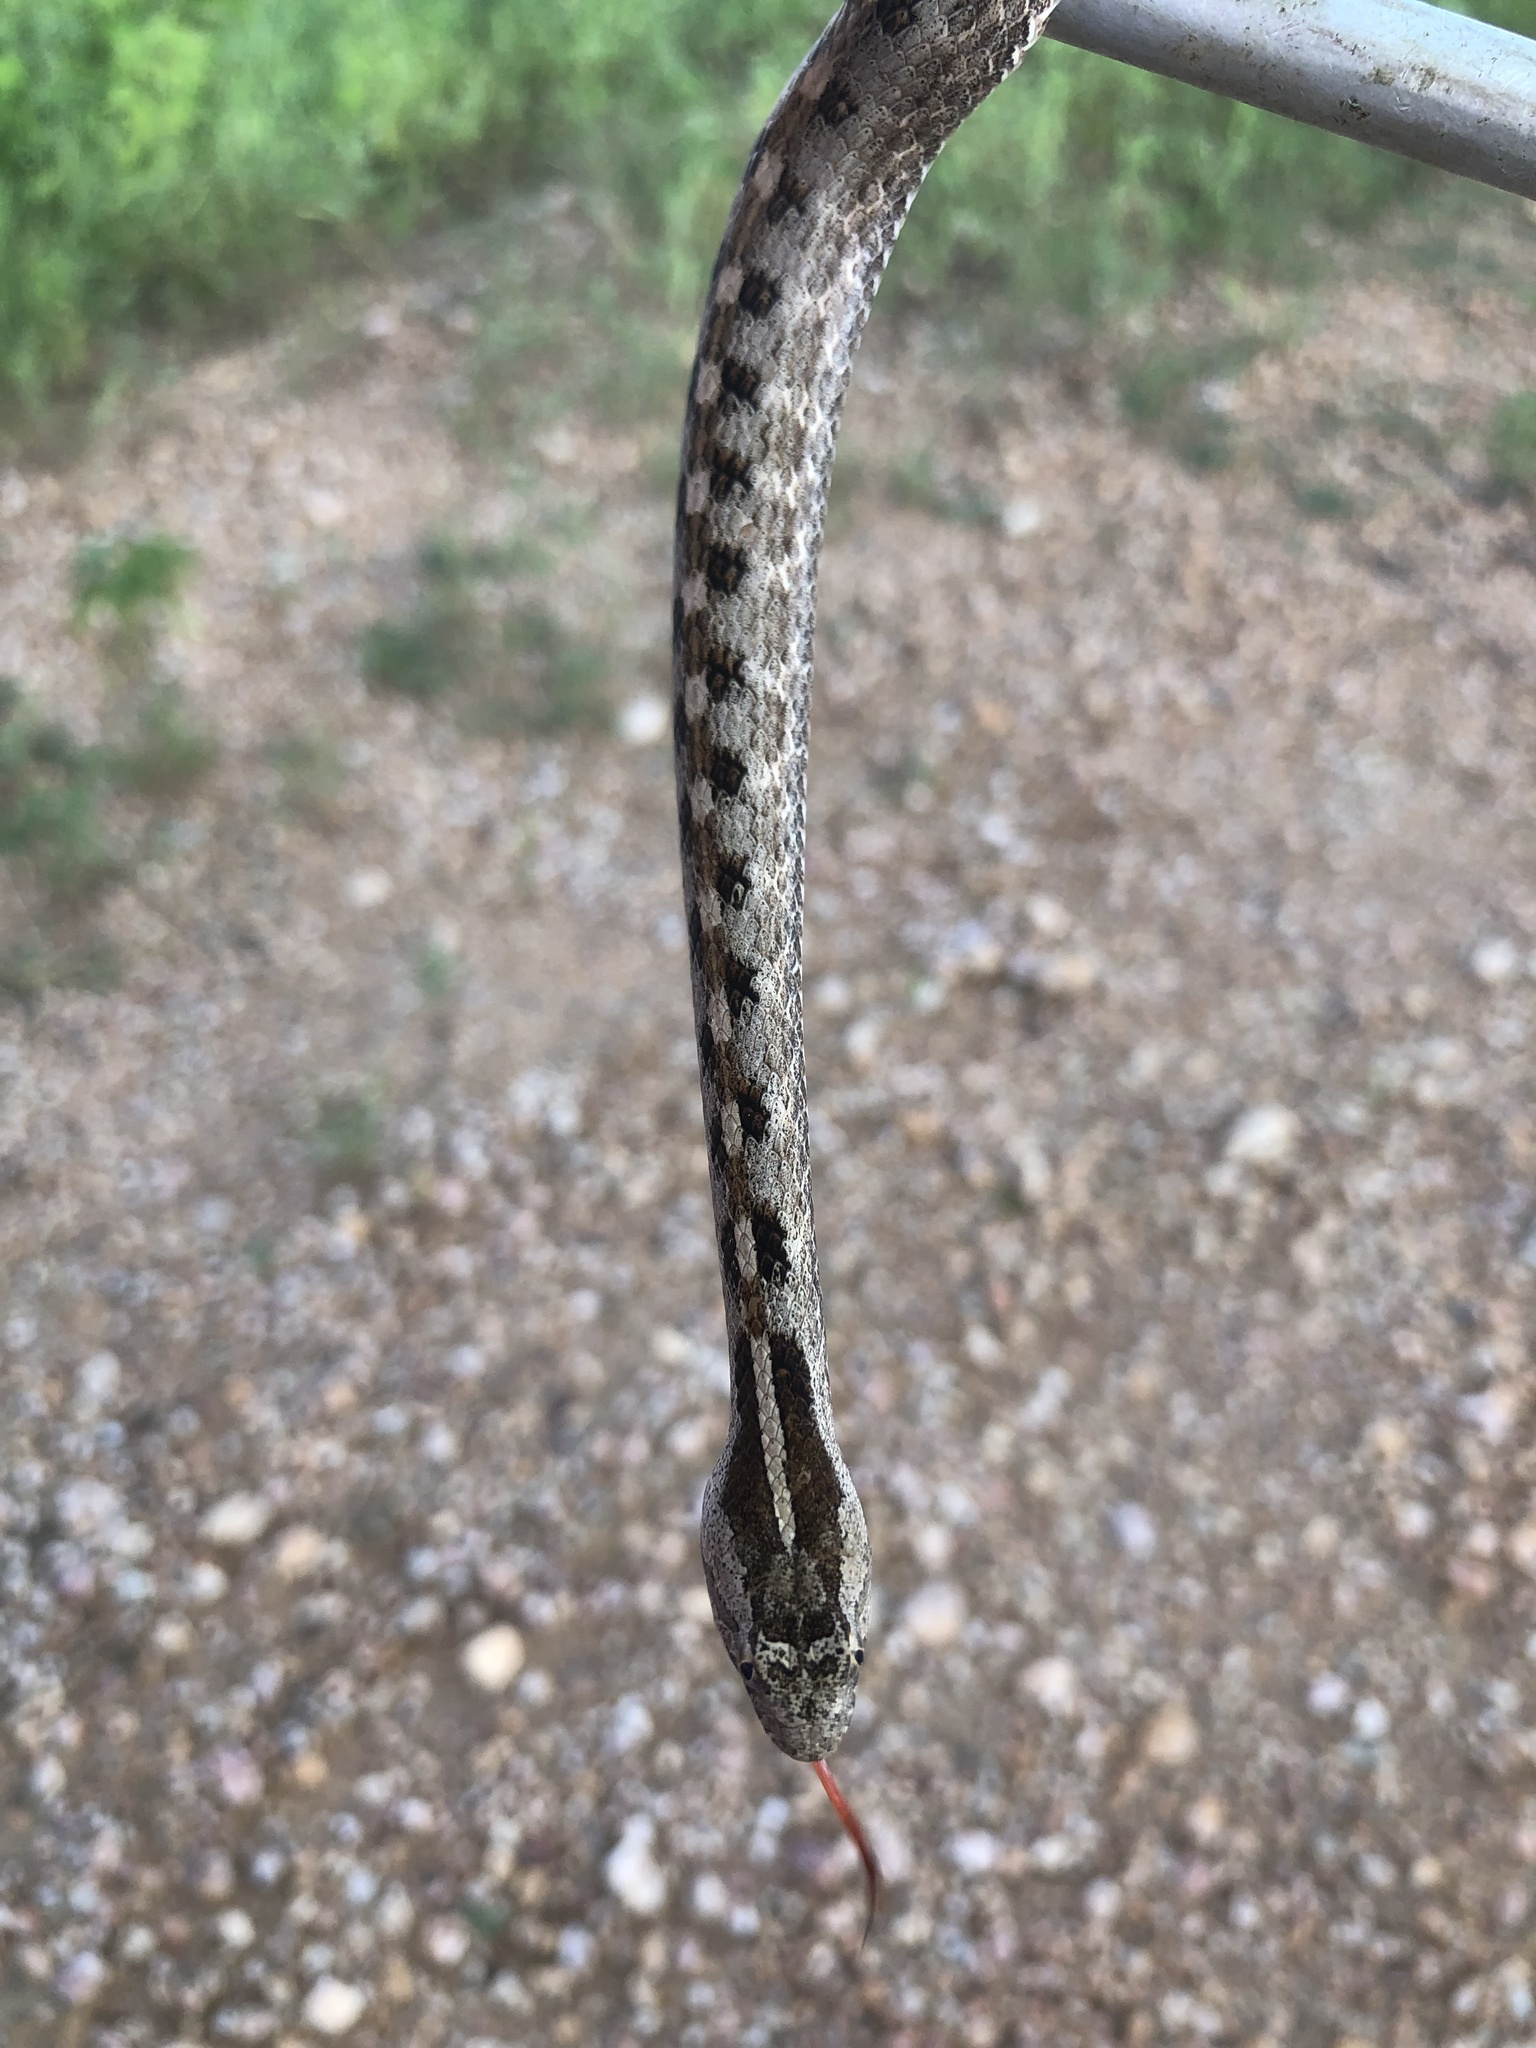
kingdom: Animalia
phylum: Chordata
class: Squamata
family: Colubridae
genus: Dryophylax
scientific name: Dryophylax
